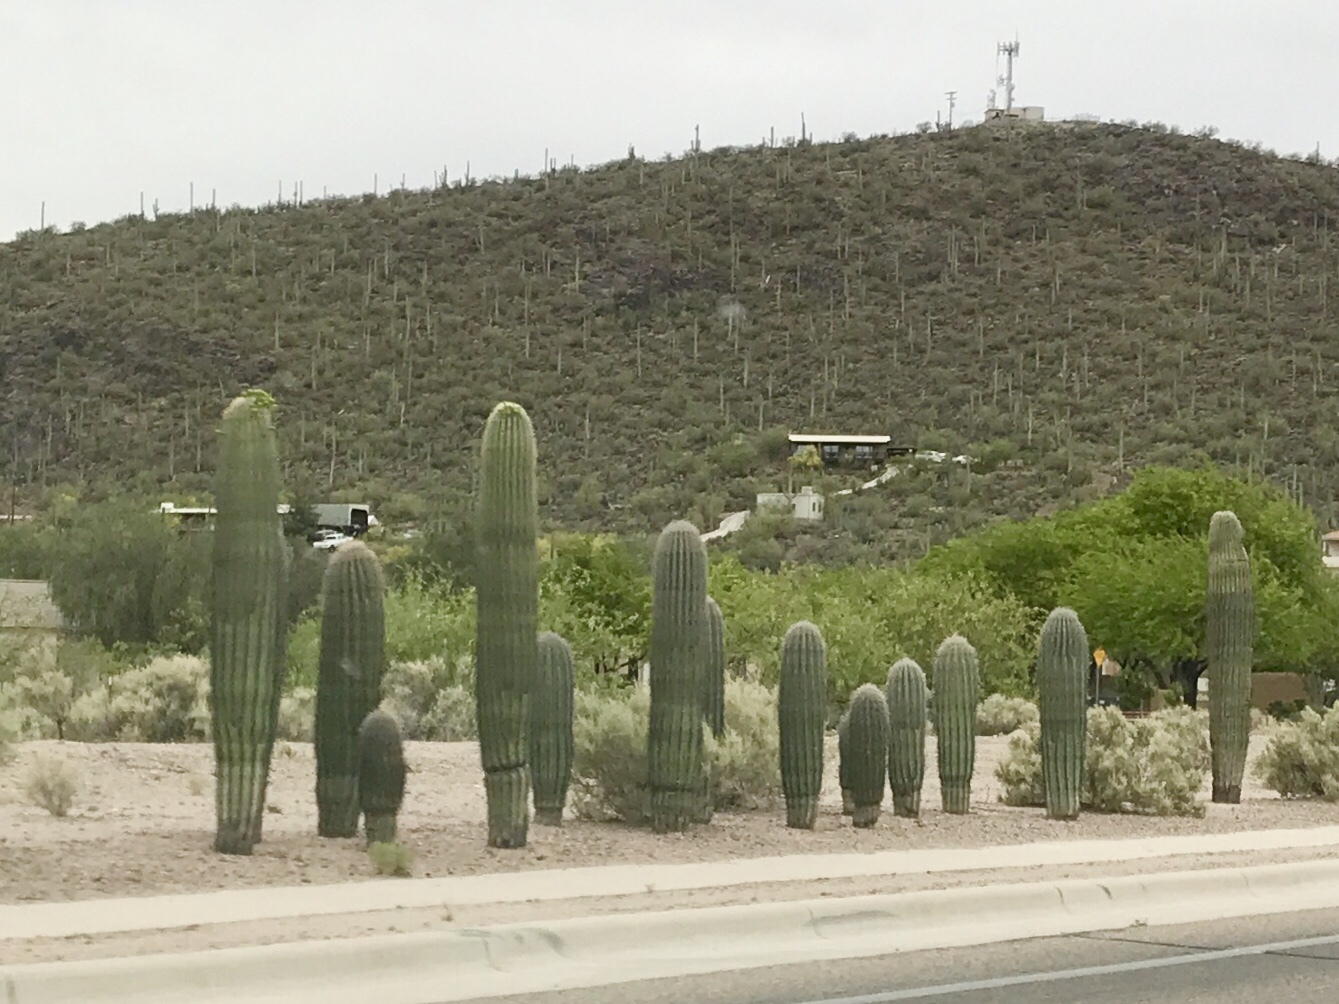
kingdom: Plantae
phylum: Tracheophyta
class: Magnoliopsida
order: Caryophyllales
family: Cactaceae
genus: Carnegiea
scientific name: Carnegiea gigantea
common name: Saguaro
